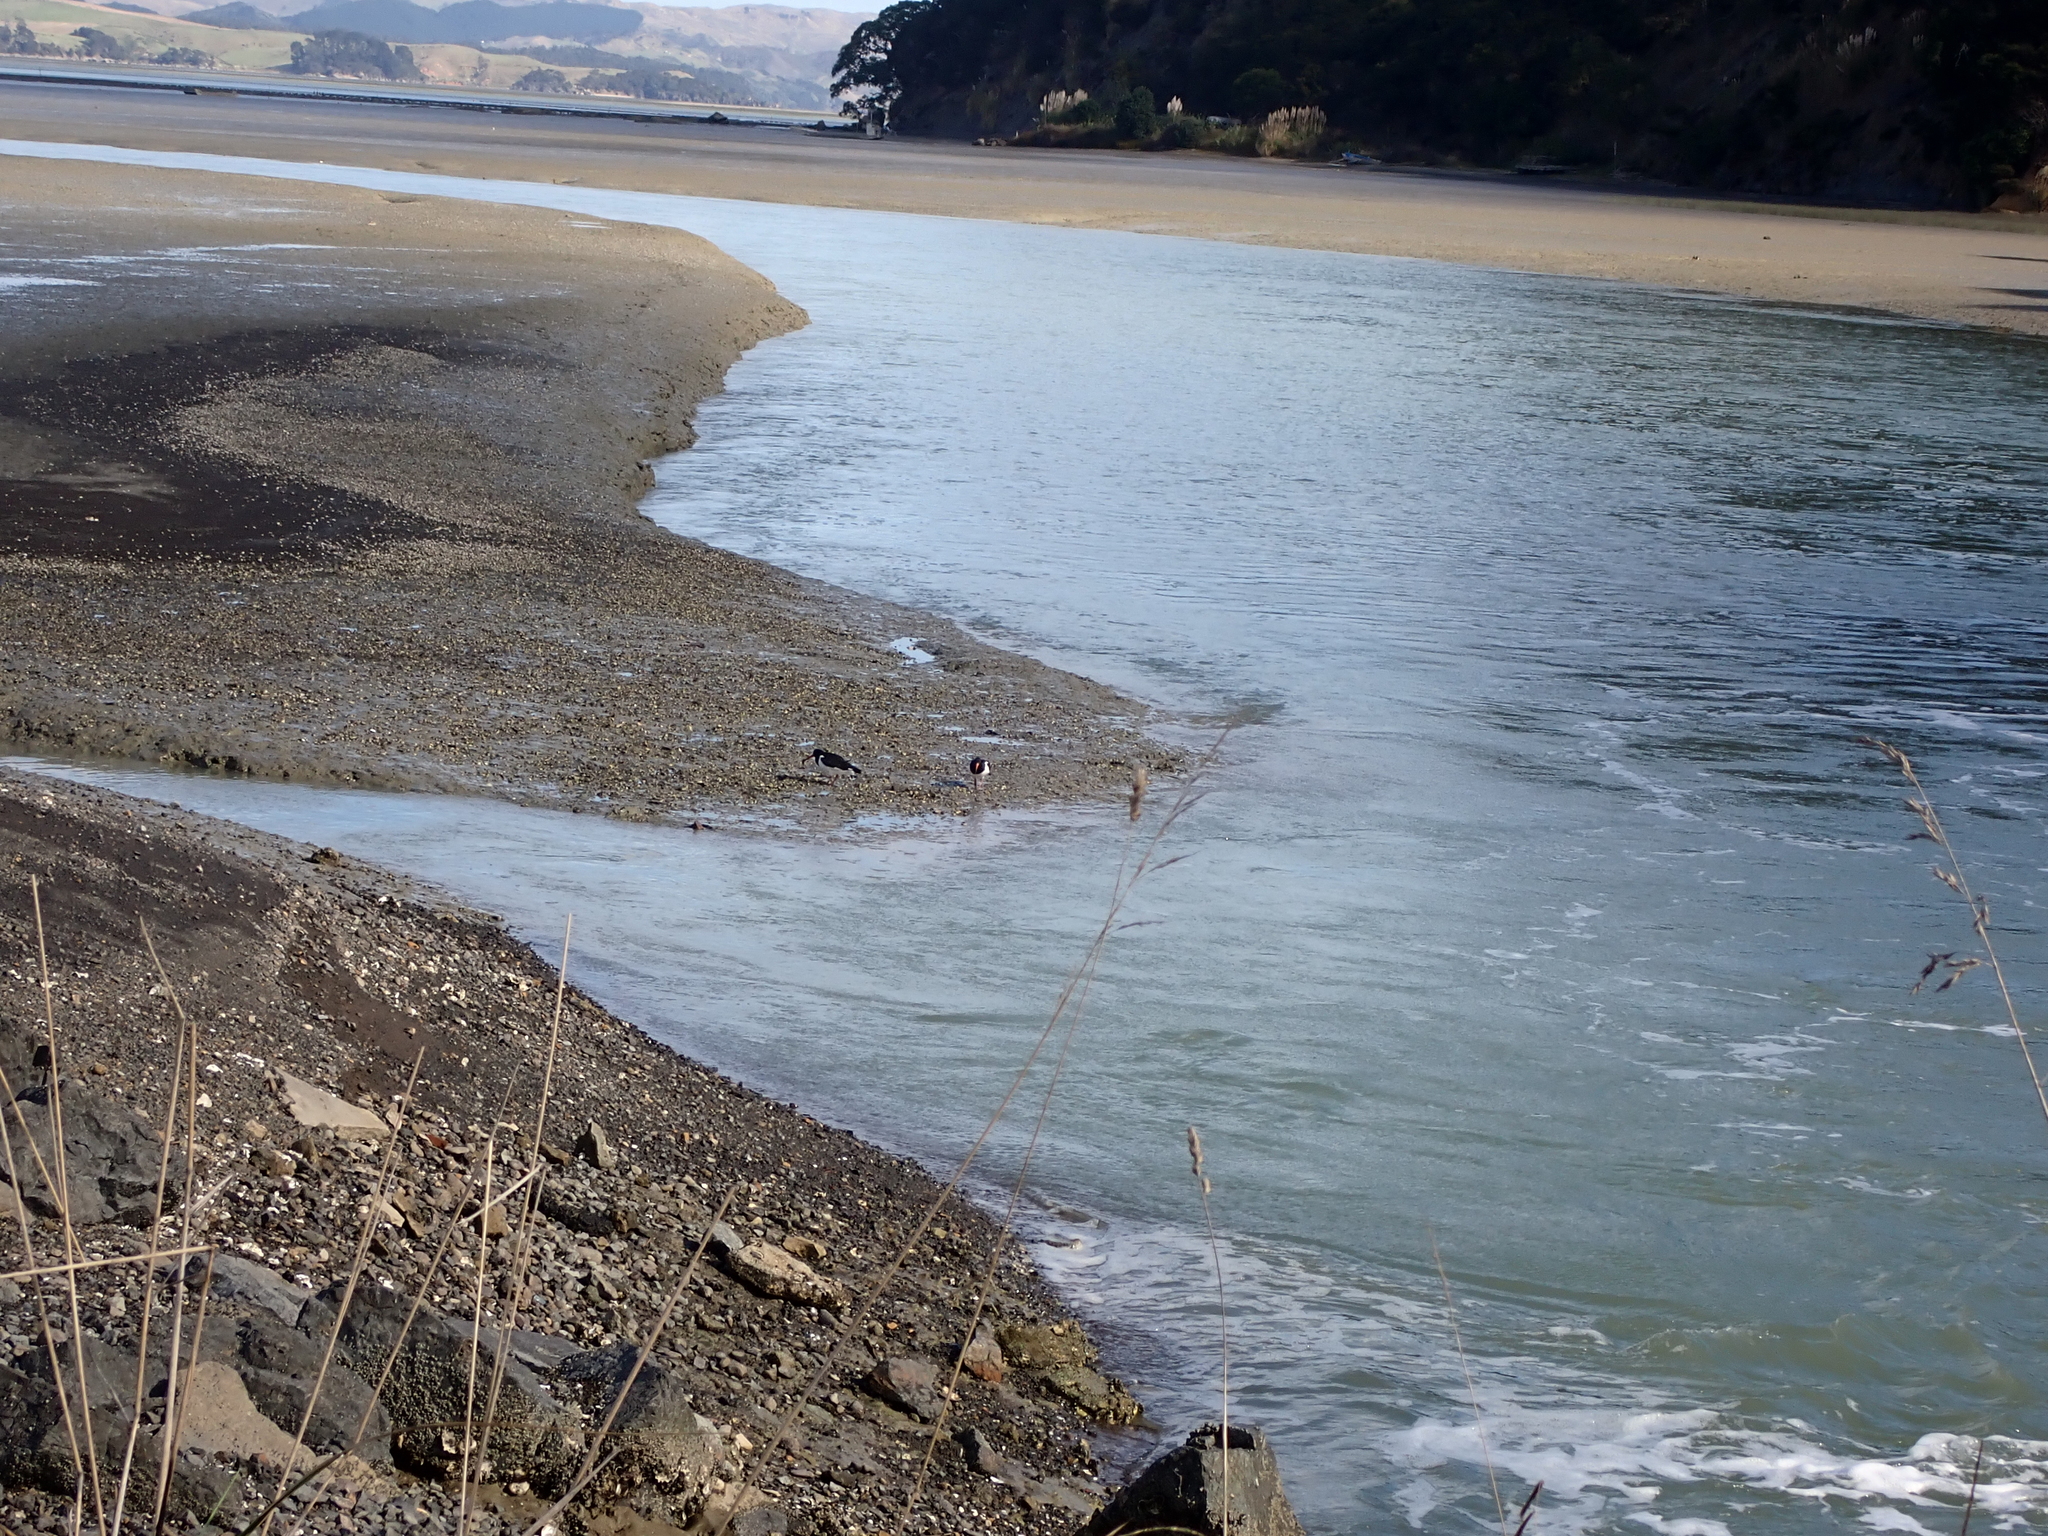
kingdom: Animalia
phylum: Chordata
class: Aves
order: Charadriiformes
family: Haematopodidae
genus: Haematopus
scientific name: Haematopus finschi
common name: South island oystercatcher
